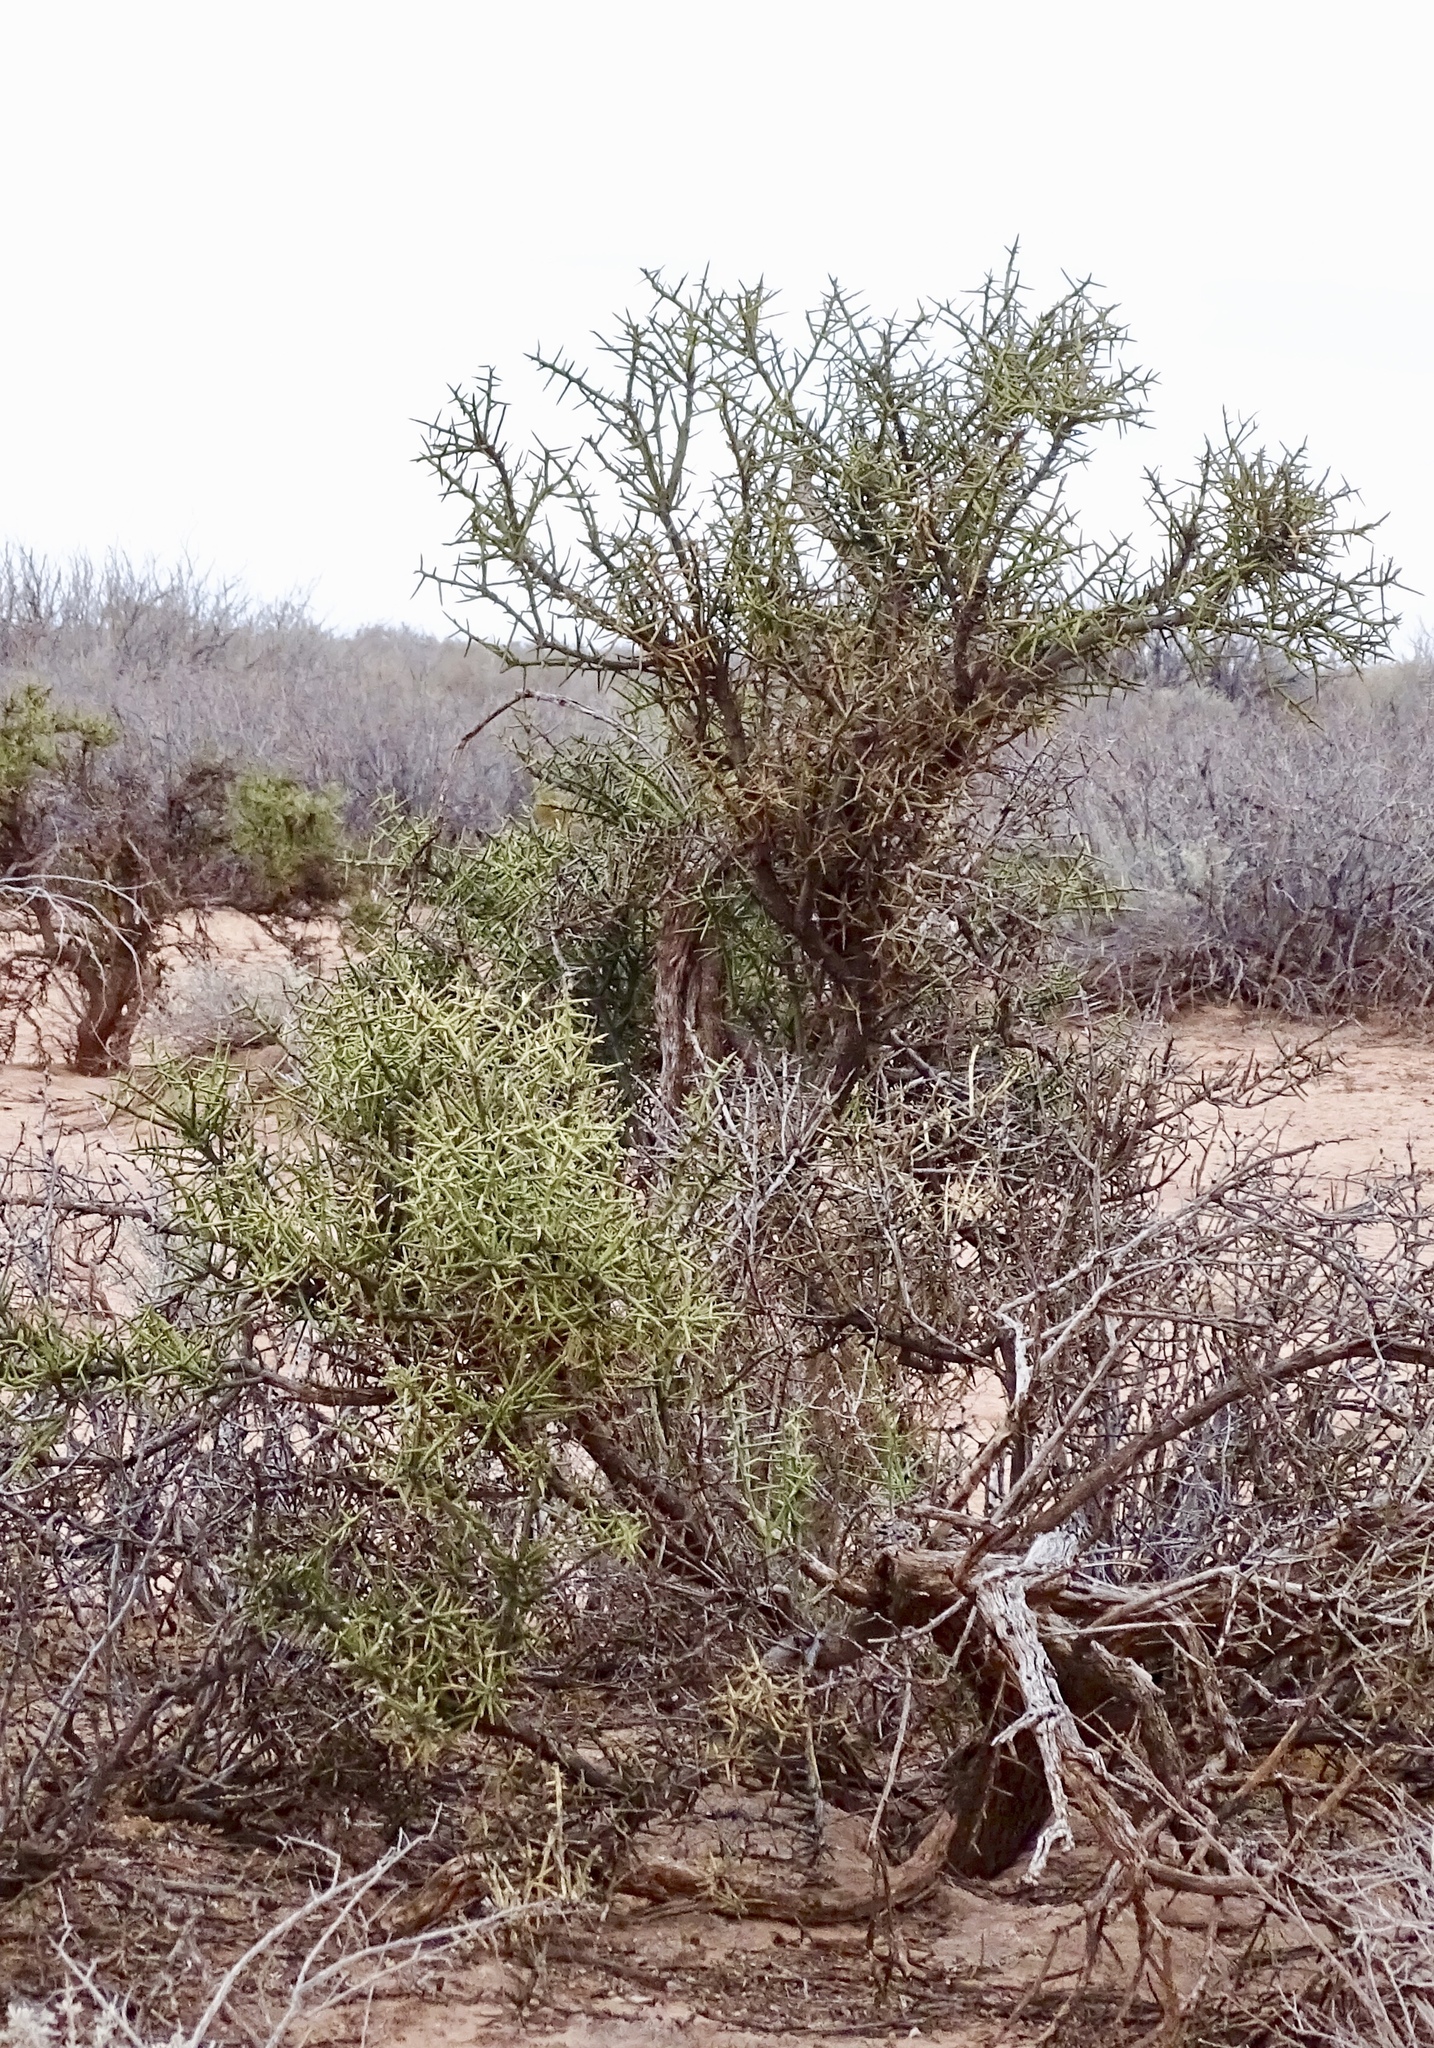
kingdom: Plantae
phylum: Tracheophyta
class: Magnoliopsida
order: Brassicales
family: Koeberliniaceae
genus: Koeberlinia
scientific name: Koeberlinia spinosa
